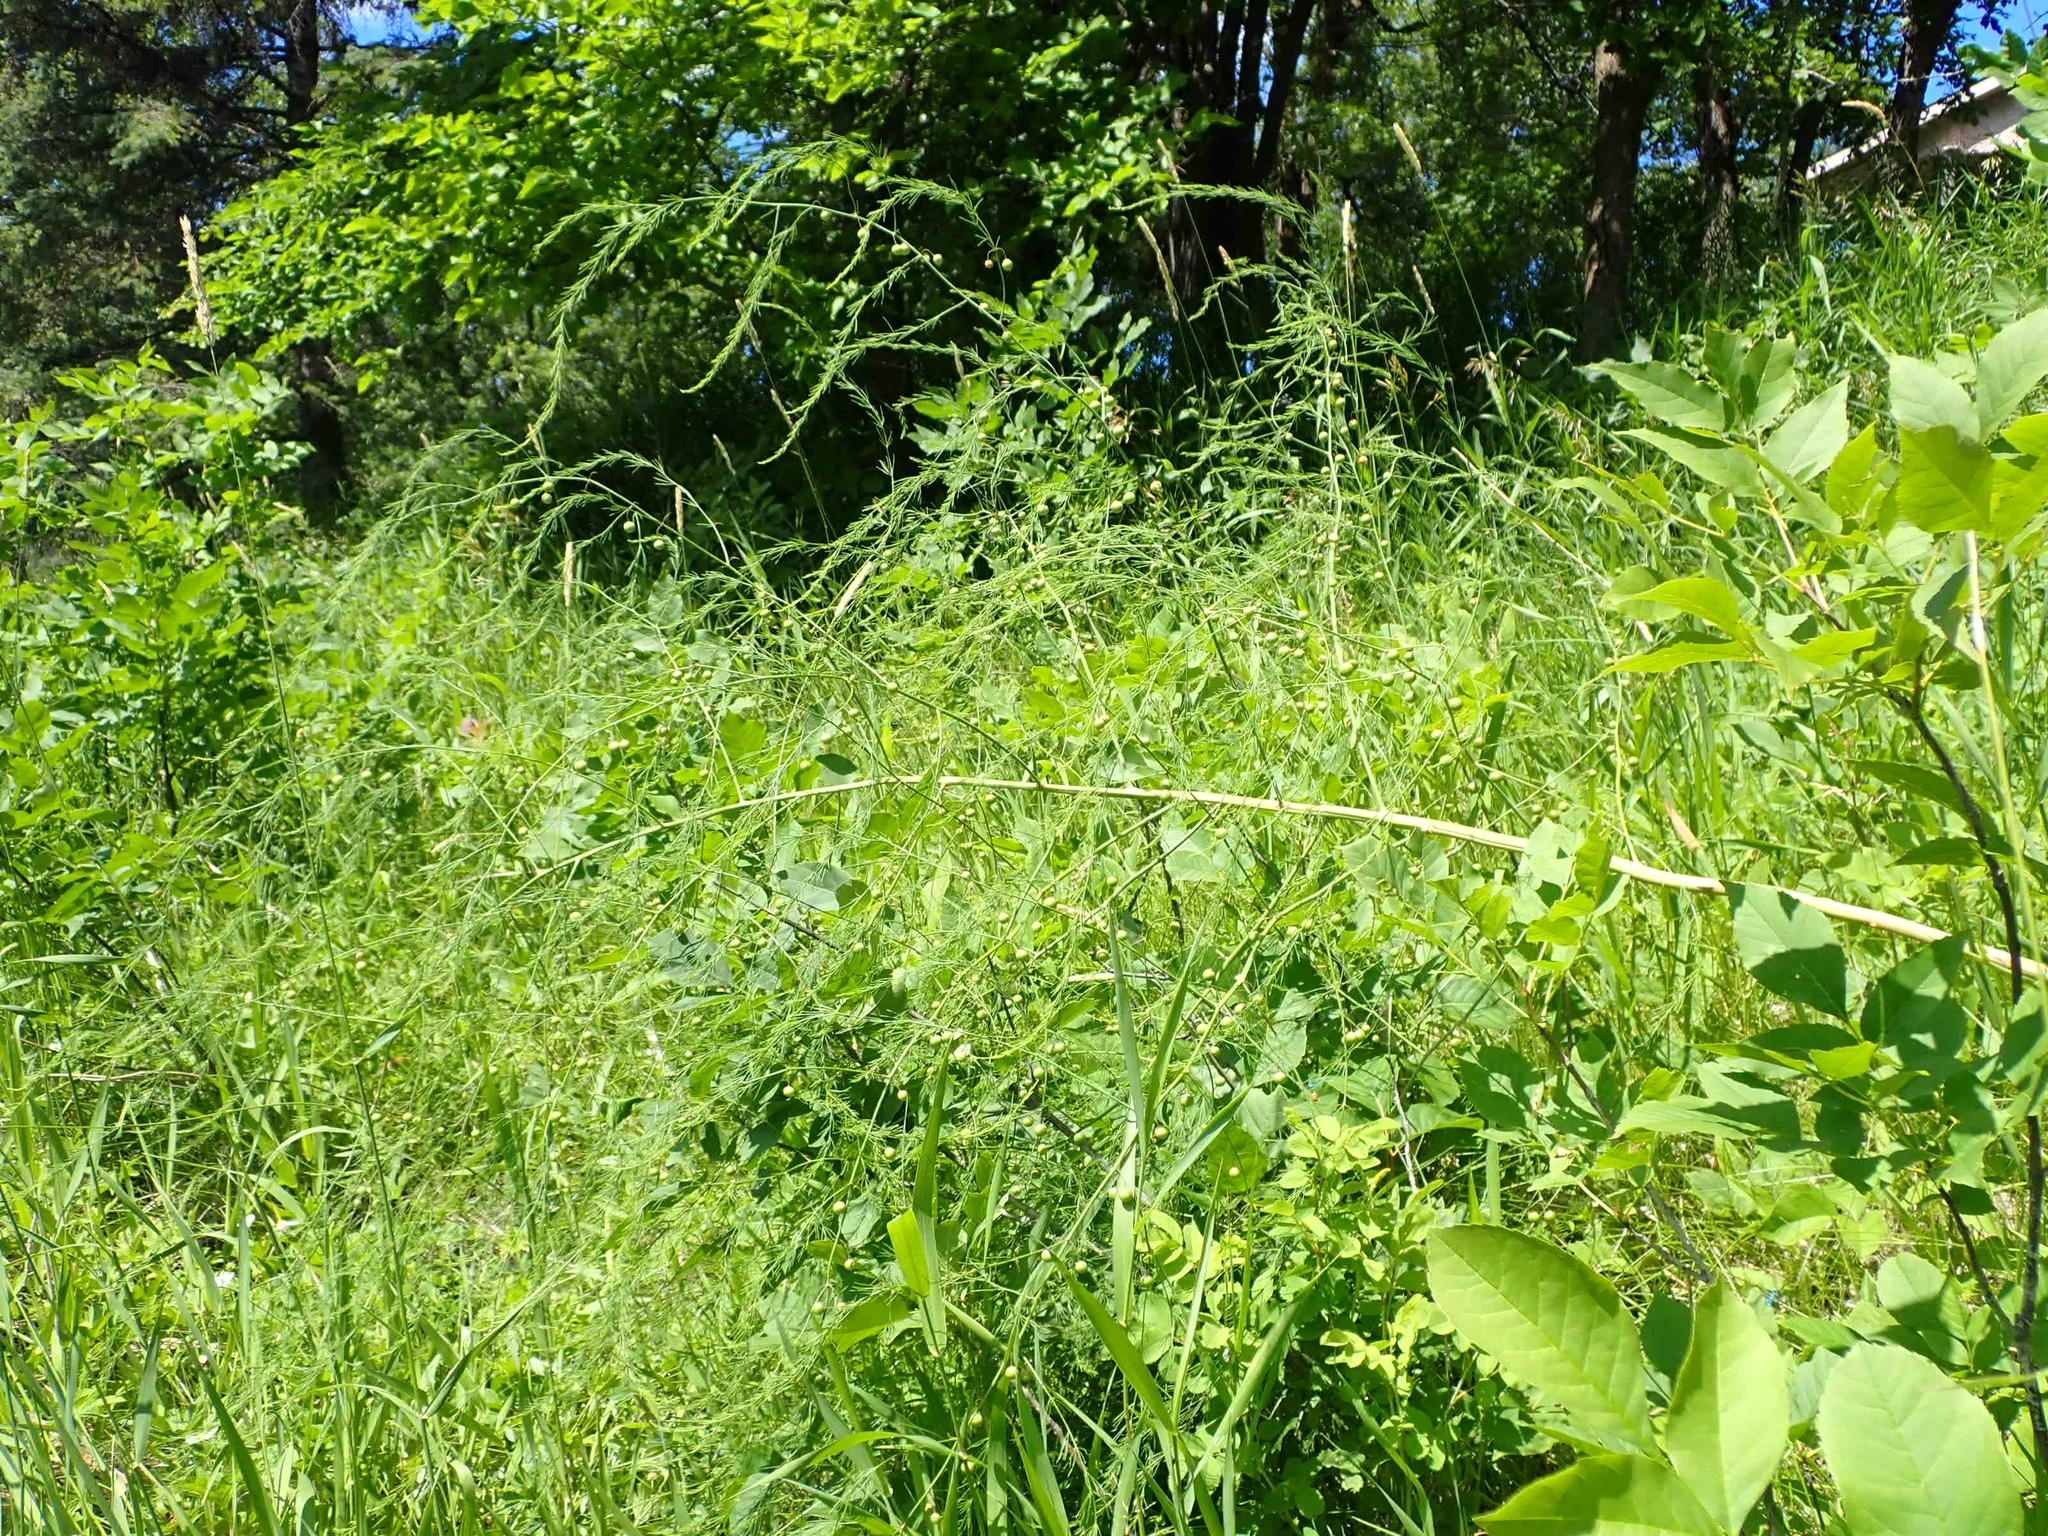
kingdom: Plantae
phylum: Tracheophyta
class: Liliopsida
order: Asparagales
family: Asparagaceae
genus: Asparagus
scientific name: Asparagus officinalis
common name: Garden asparagus
